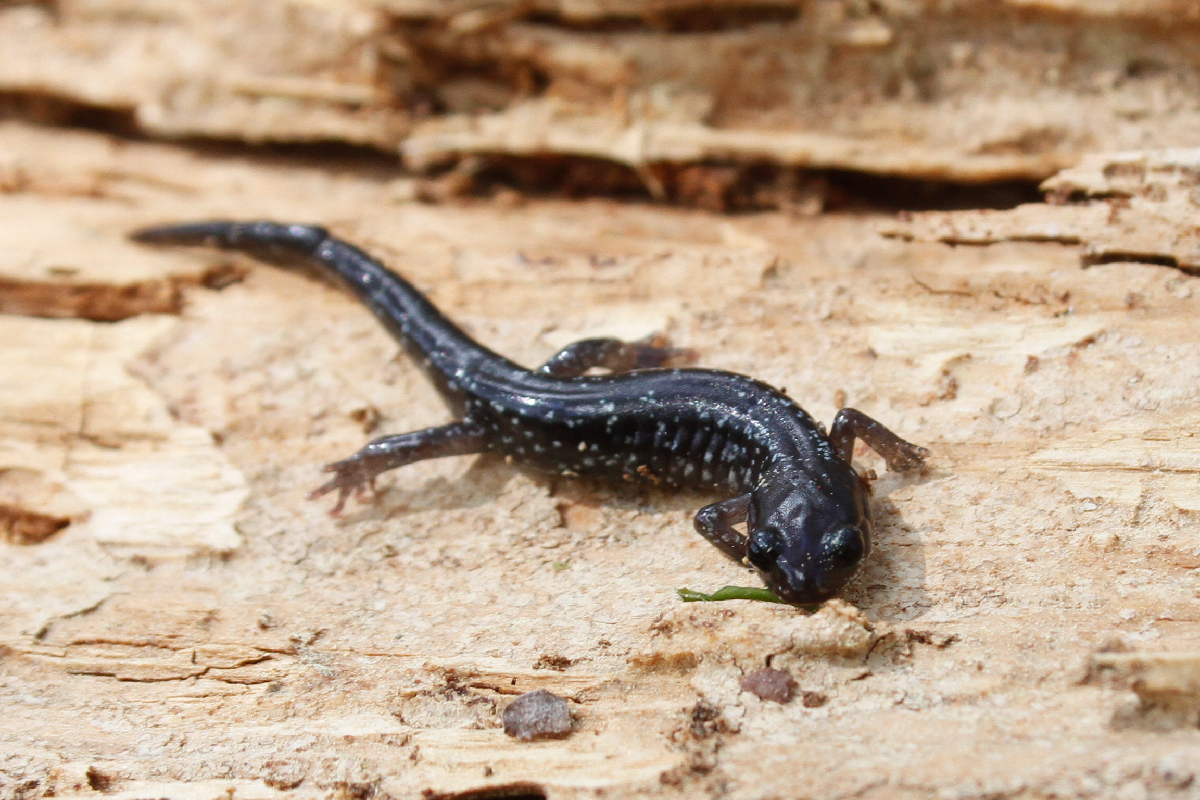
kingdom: Animalia
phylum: Chordata
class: Amphibia
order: Caudata
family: Plethodontidae
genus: Plethodon
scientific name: Plethodon cylindraceus
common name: White-spotted slimy salamander
